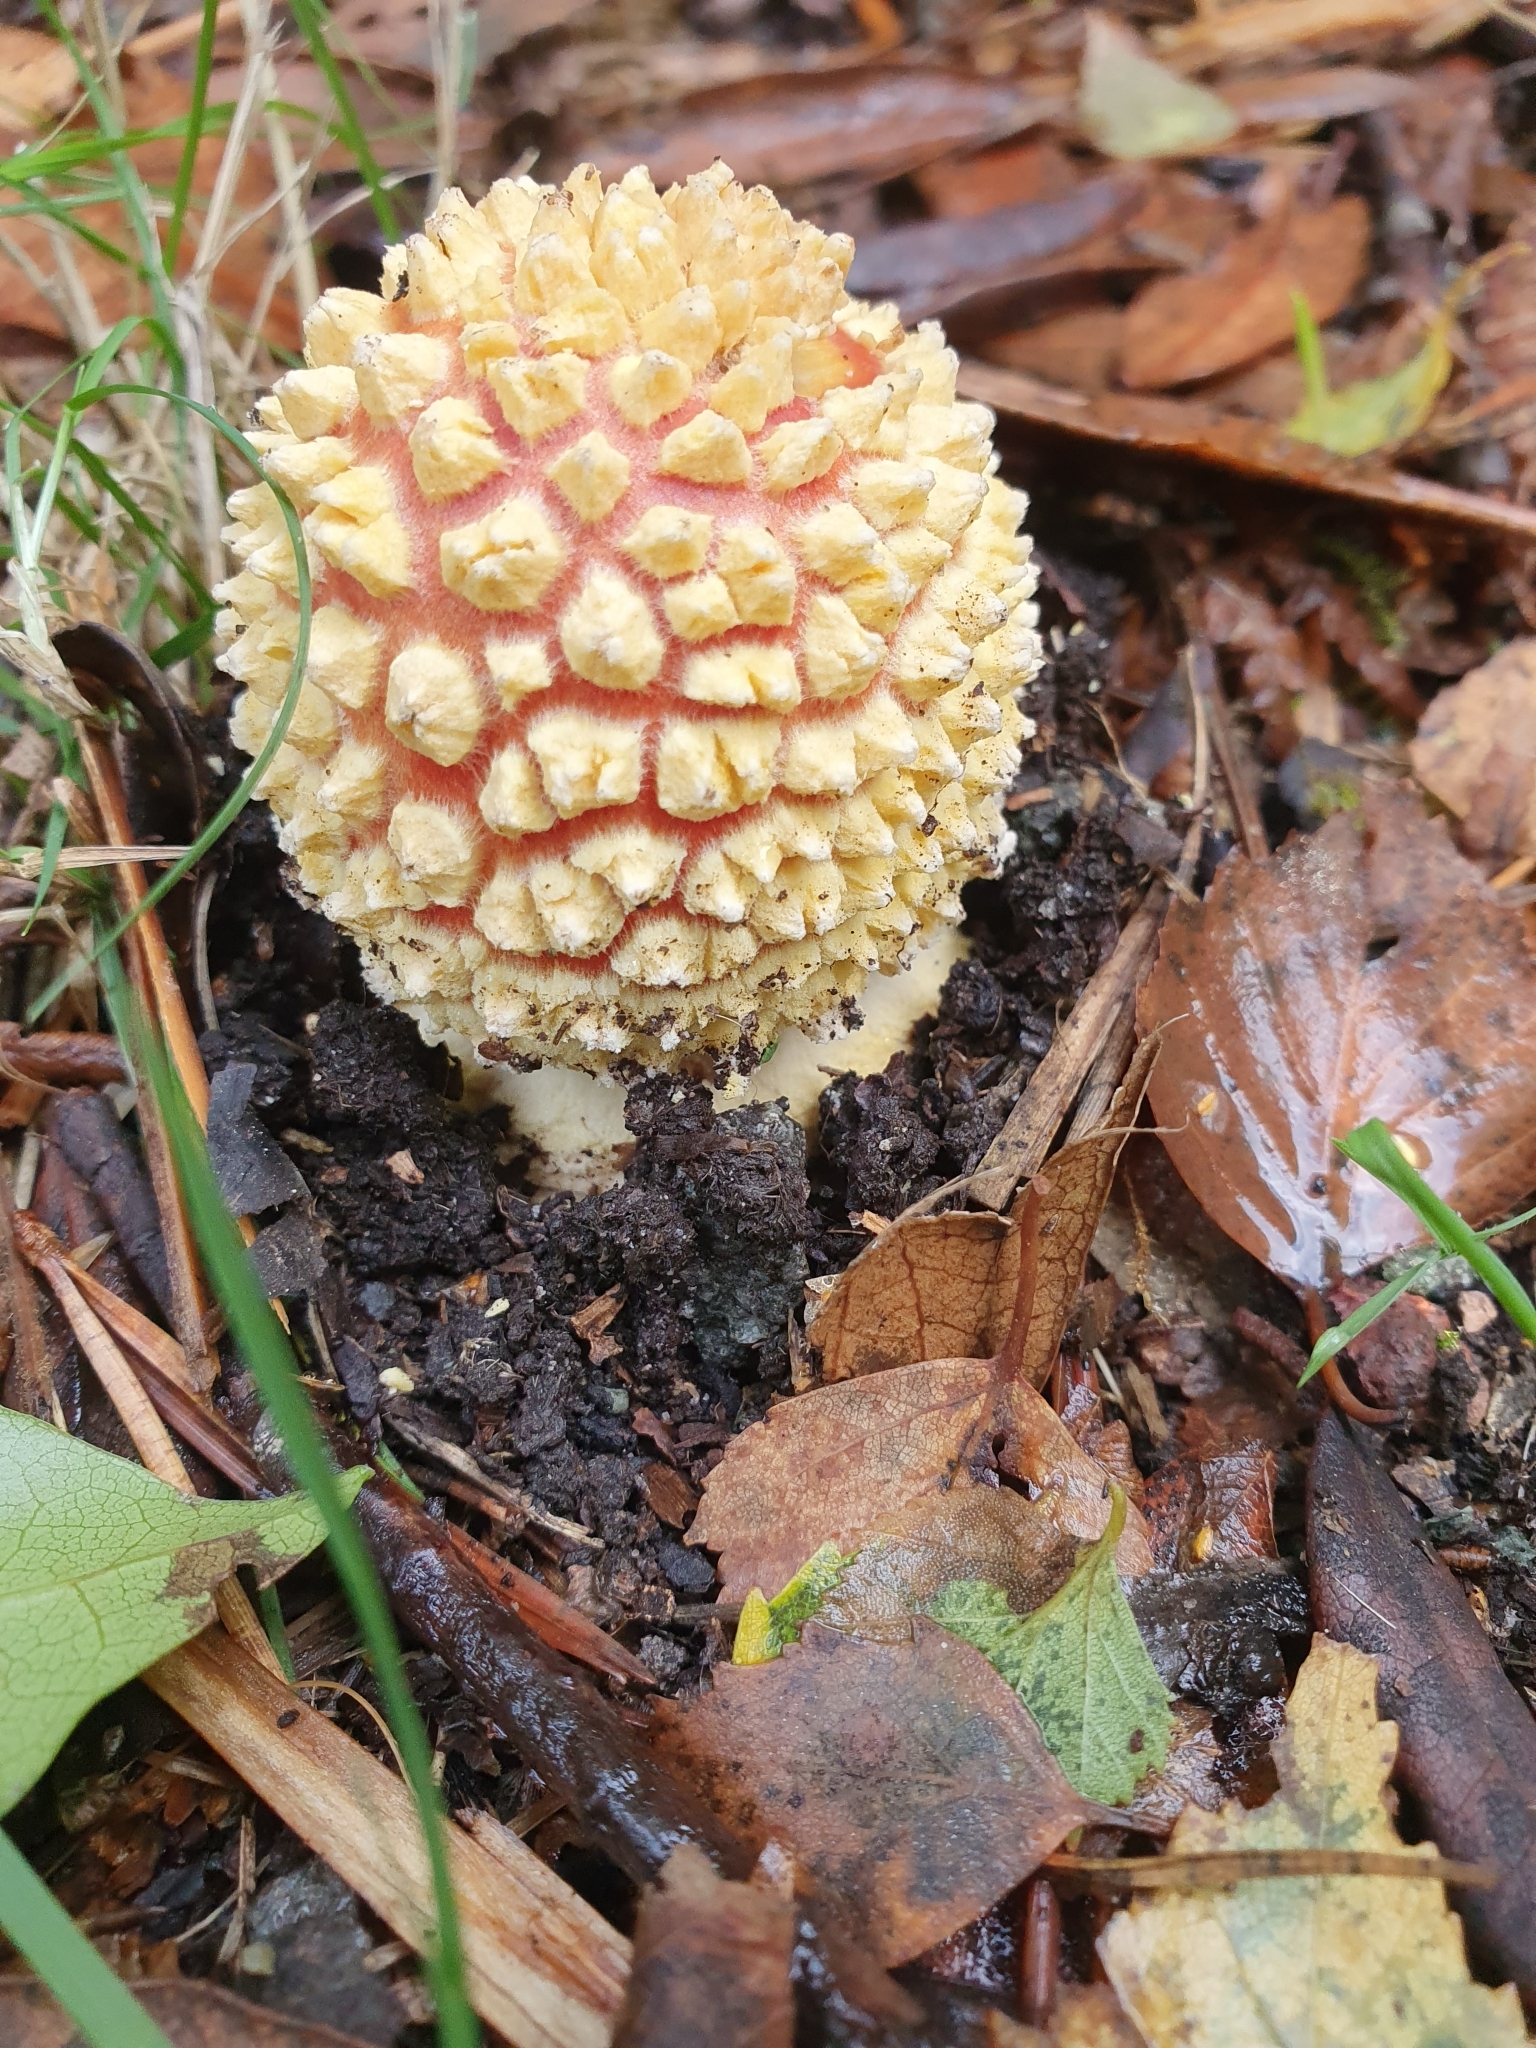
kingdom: Fungi
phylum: Basidiomycota
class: Agaricomycetes
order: Agaricales
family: Amanitaceae
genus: Amanita
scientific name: Amanita muscaria
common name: Fly agaric
